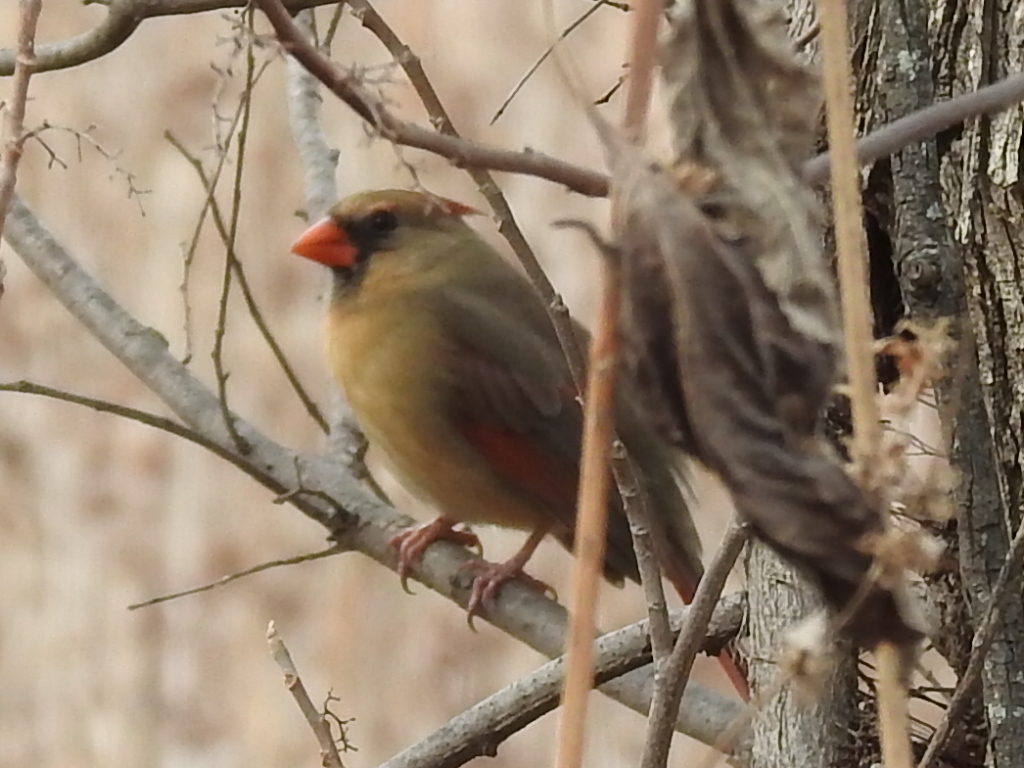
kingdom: Animalia
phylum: Chordata
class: Aves
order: Passeriformes
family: Cardinalidae
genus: Cardinalis
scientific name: Cardinalis cardinalis
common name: Northern cardinal
